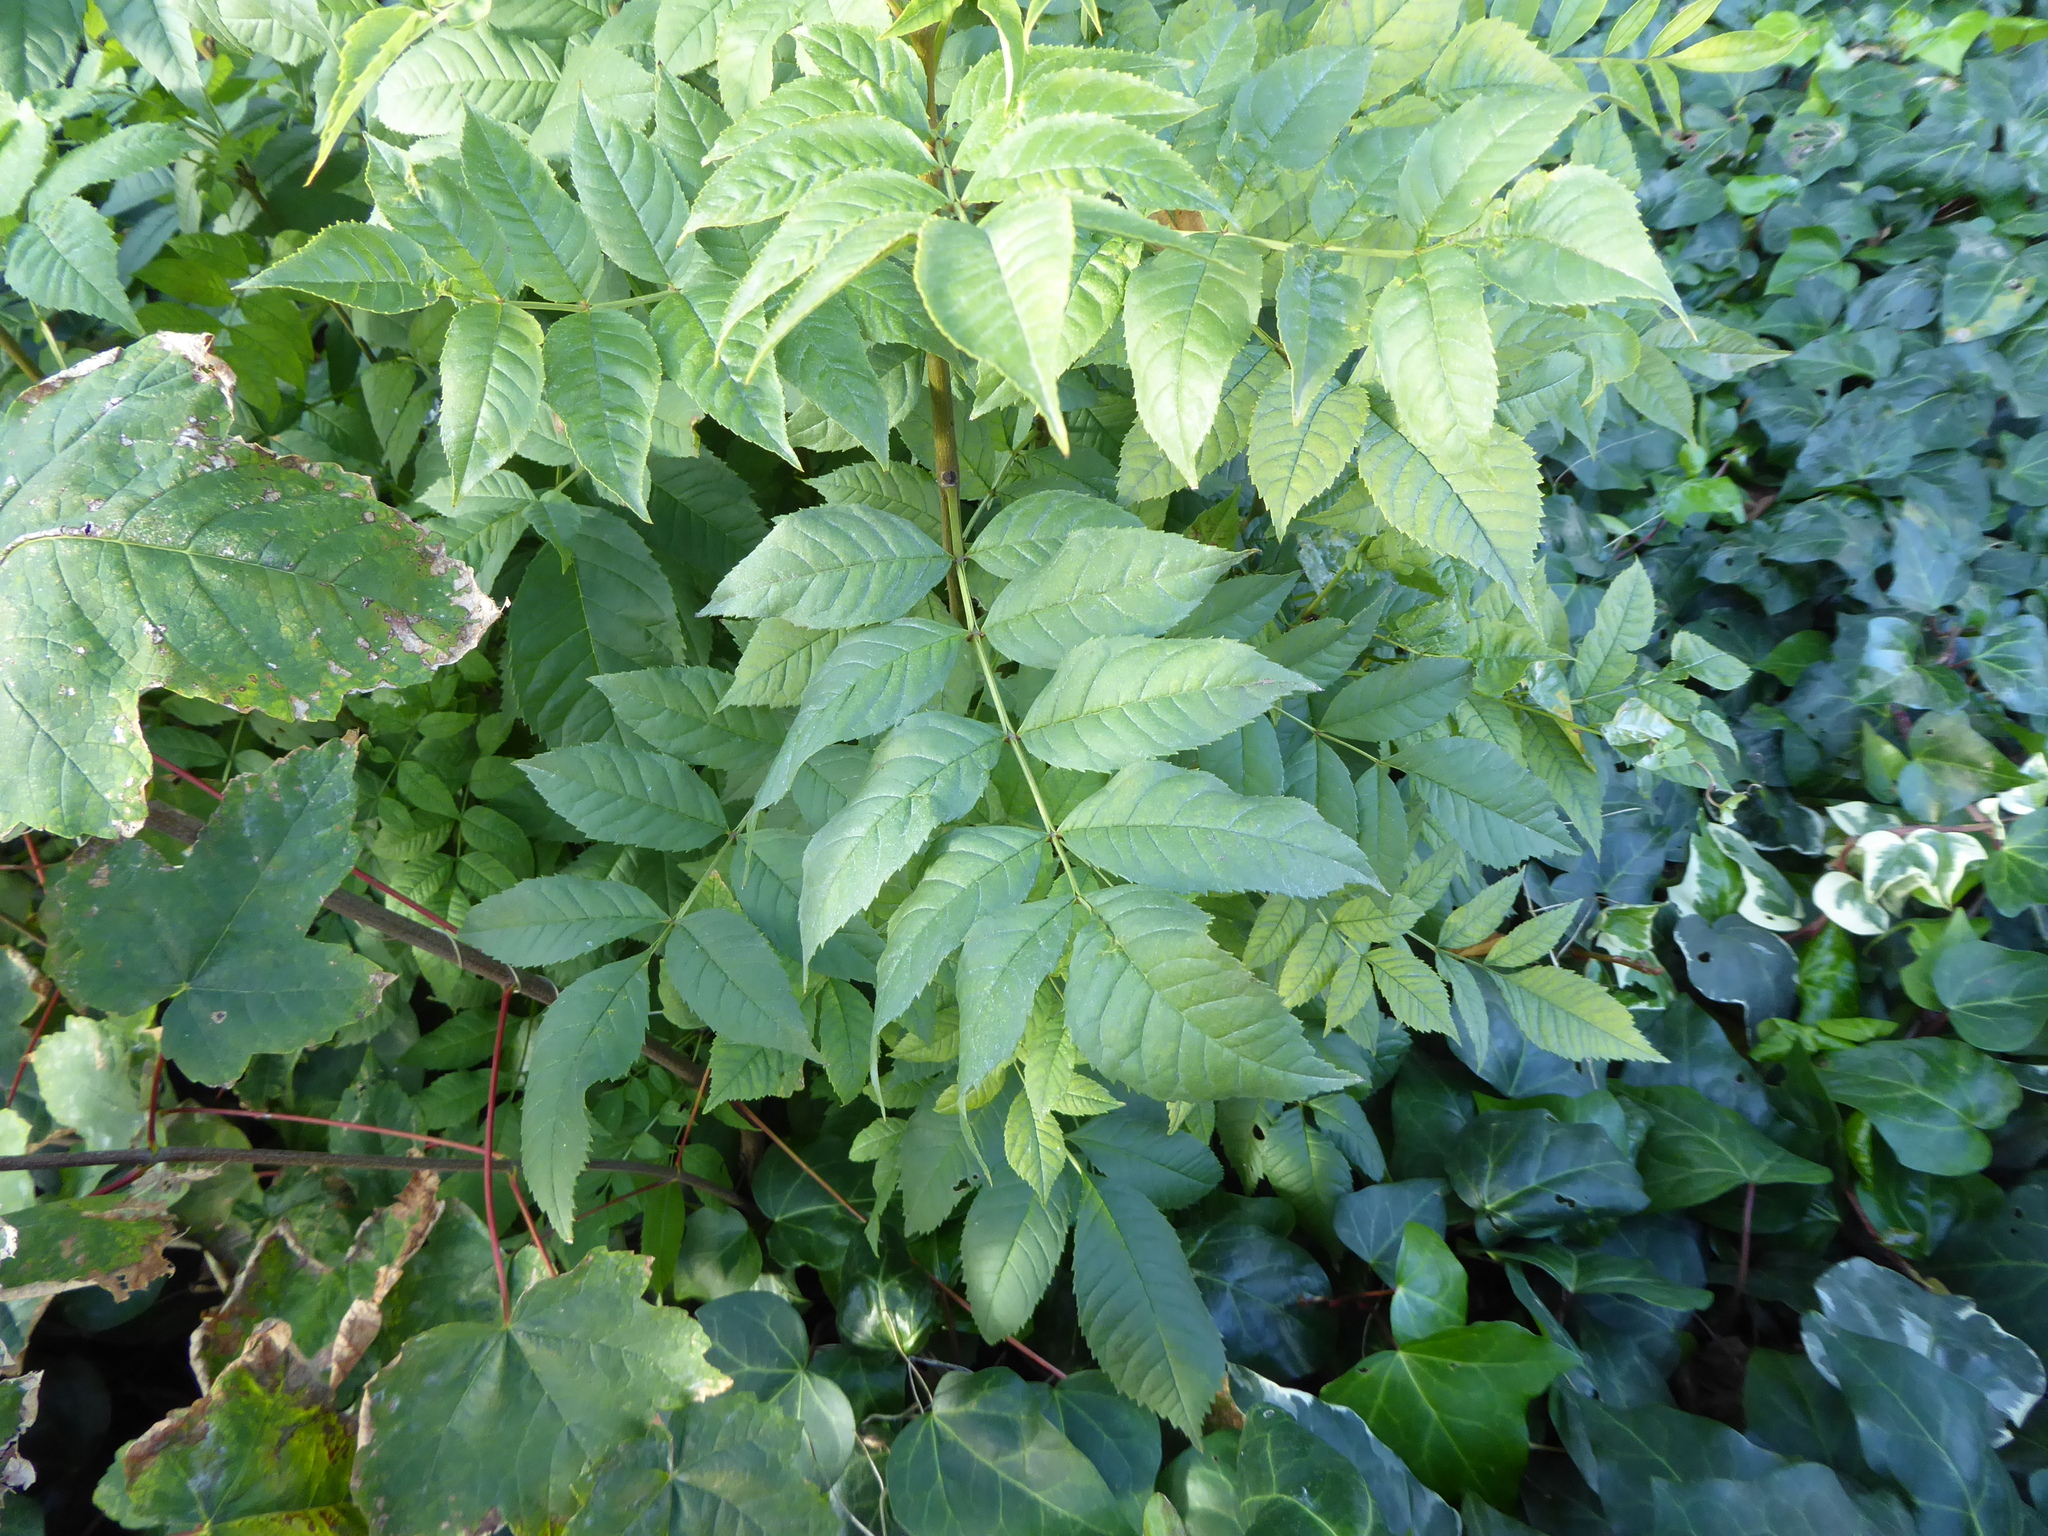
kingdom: Plantae
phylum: Tracheophyta
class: Magnoliopsida
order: Lamiales
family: Oleaceae
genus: Fraxinus
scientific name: Fraxinus excelsior
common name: European ash
